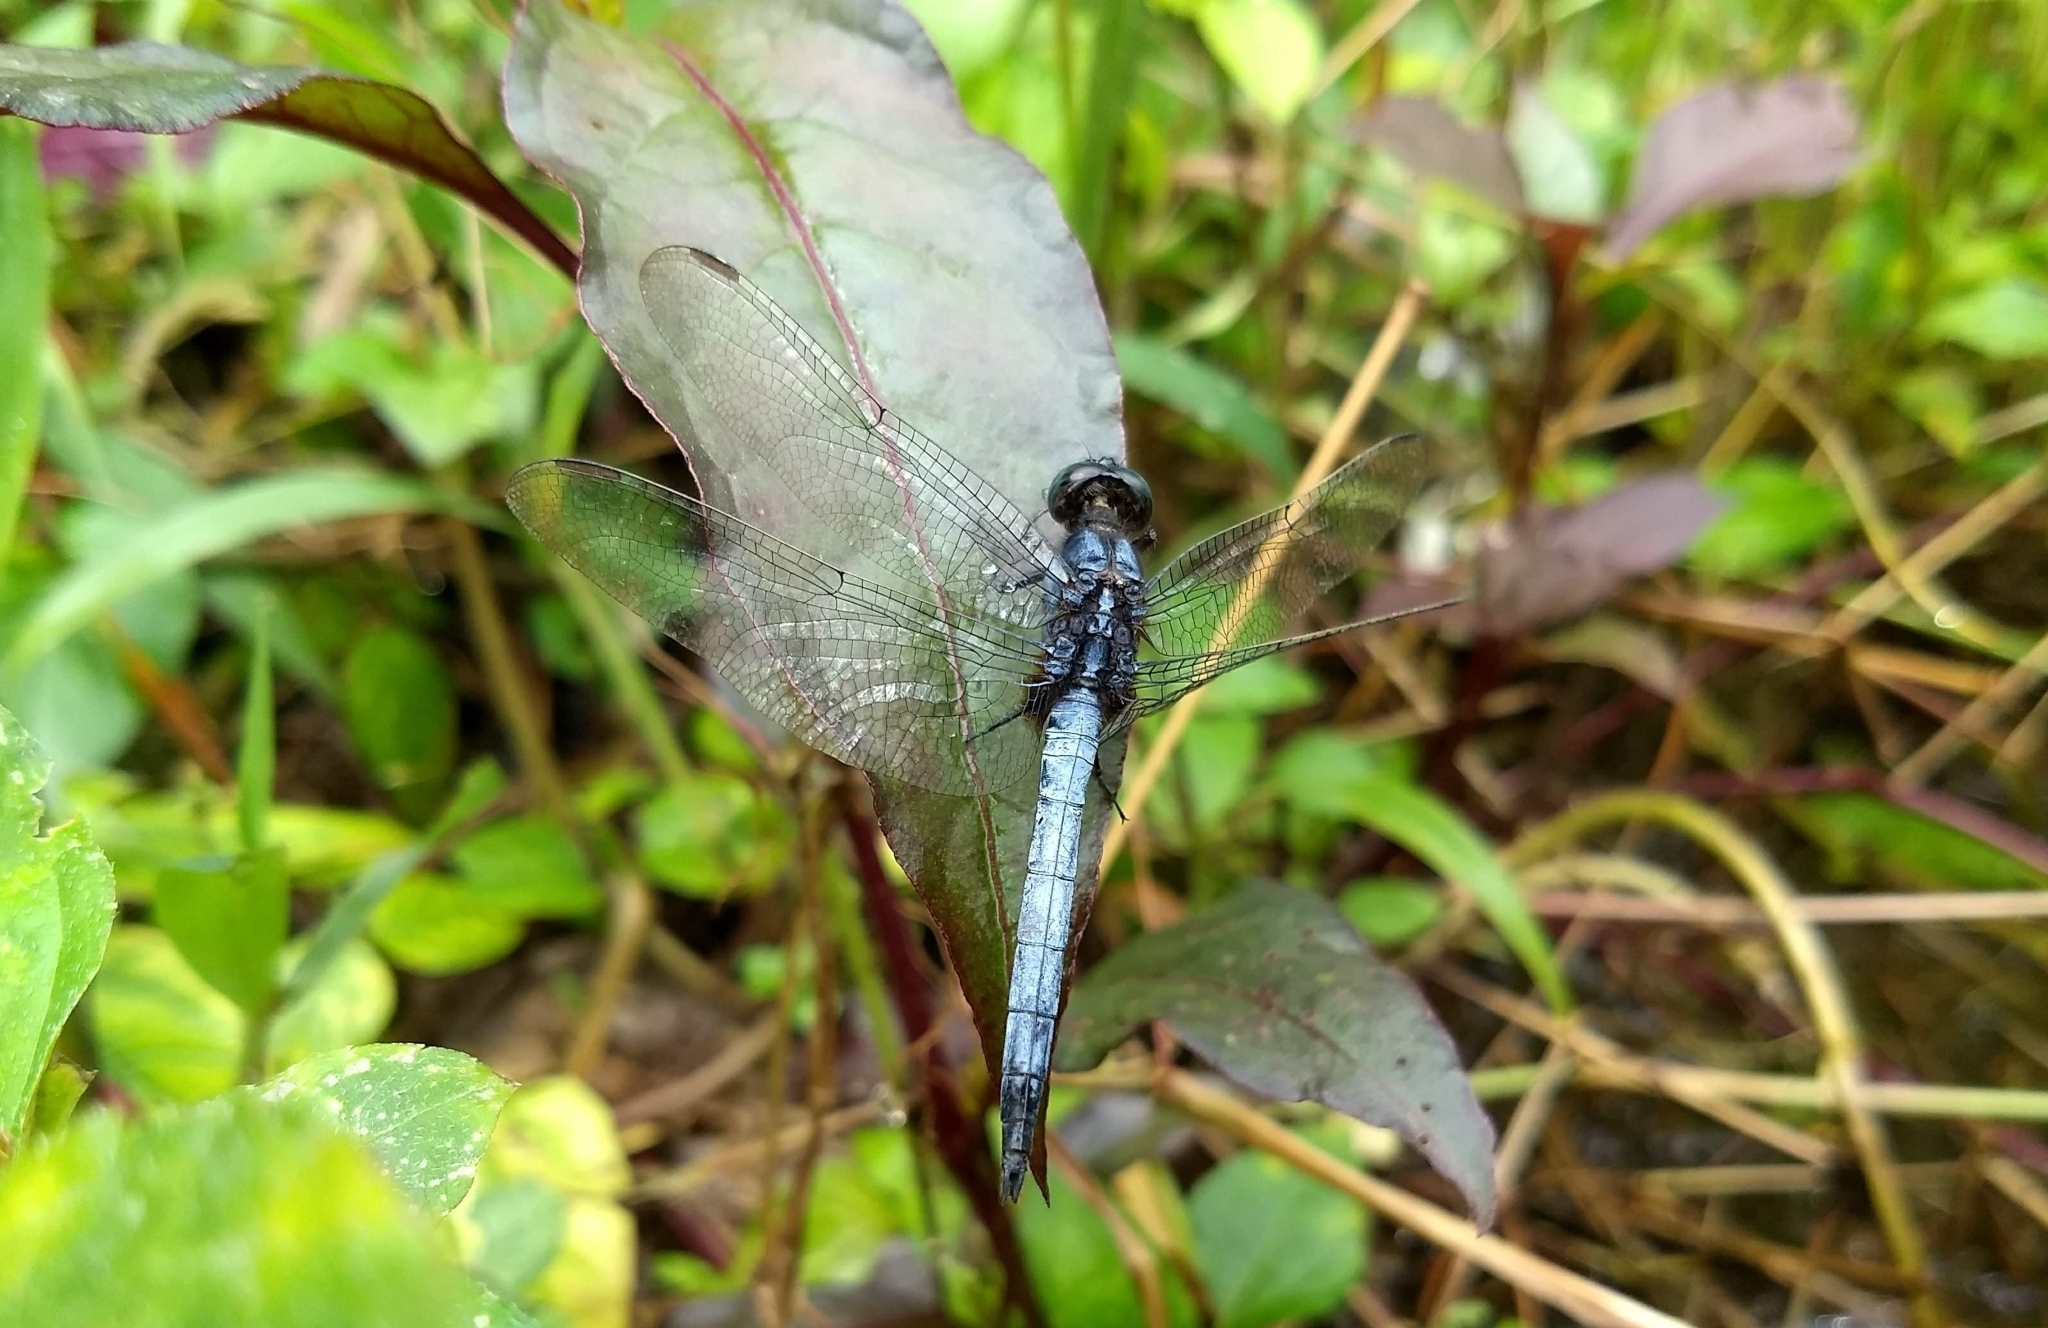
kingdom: Animalia
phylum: Arthropoda
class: Insecta
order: Odonata
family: Libellulidae
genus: Orthetrum
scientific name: Orthetrum glaucum
